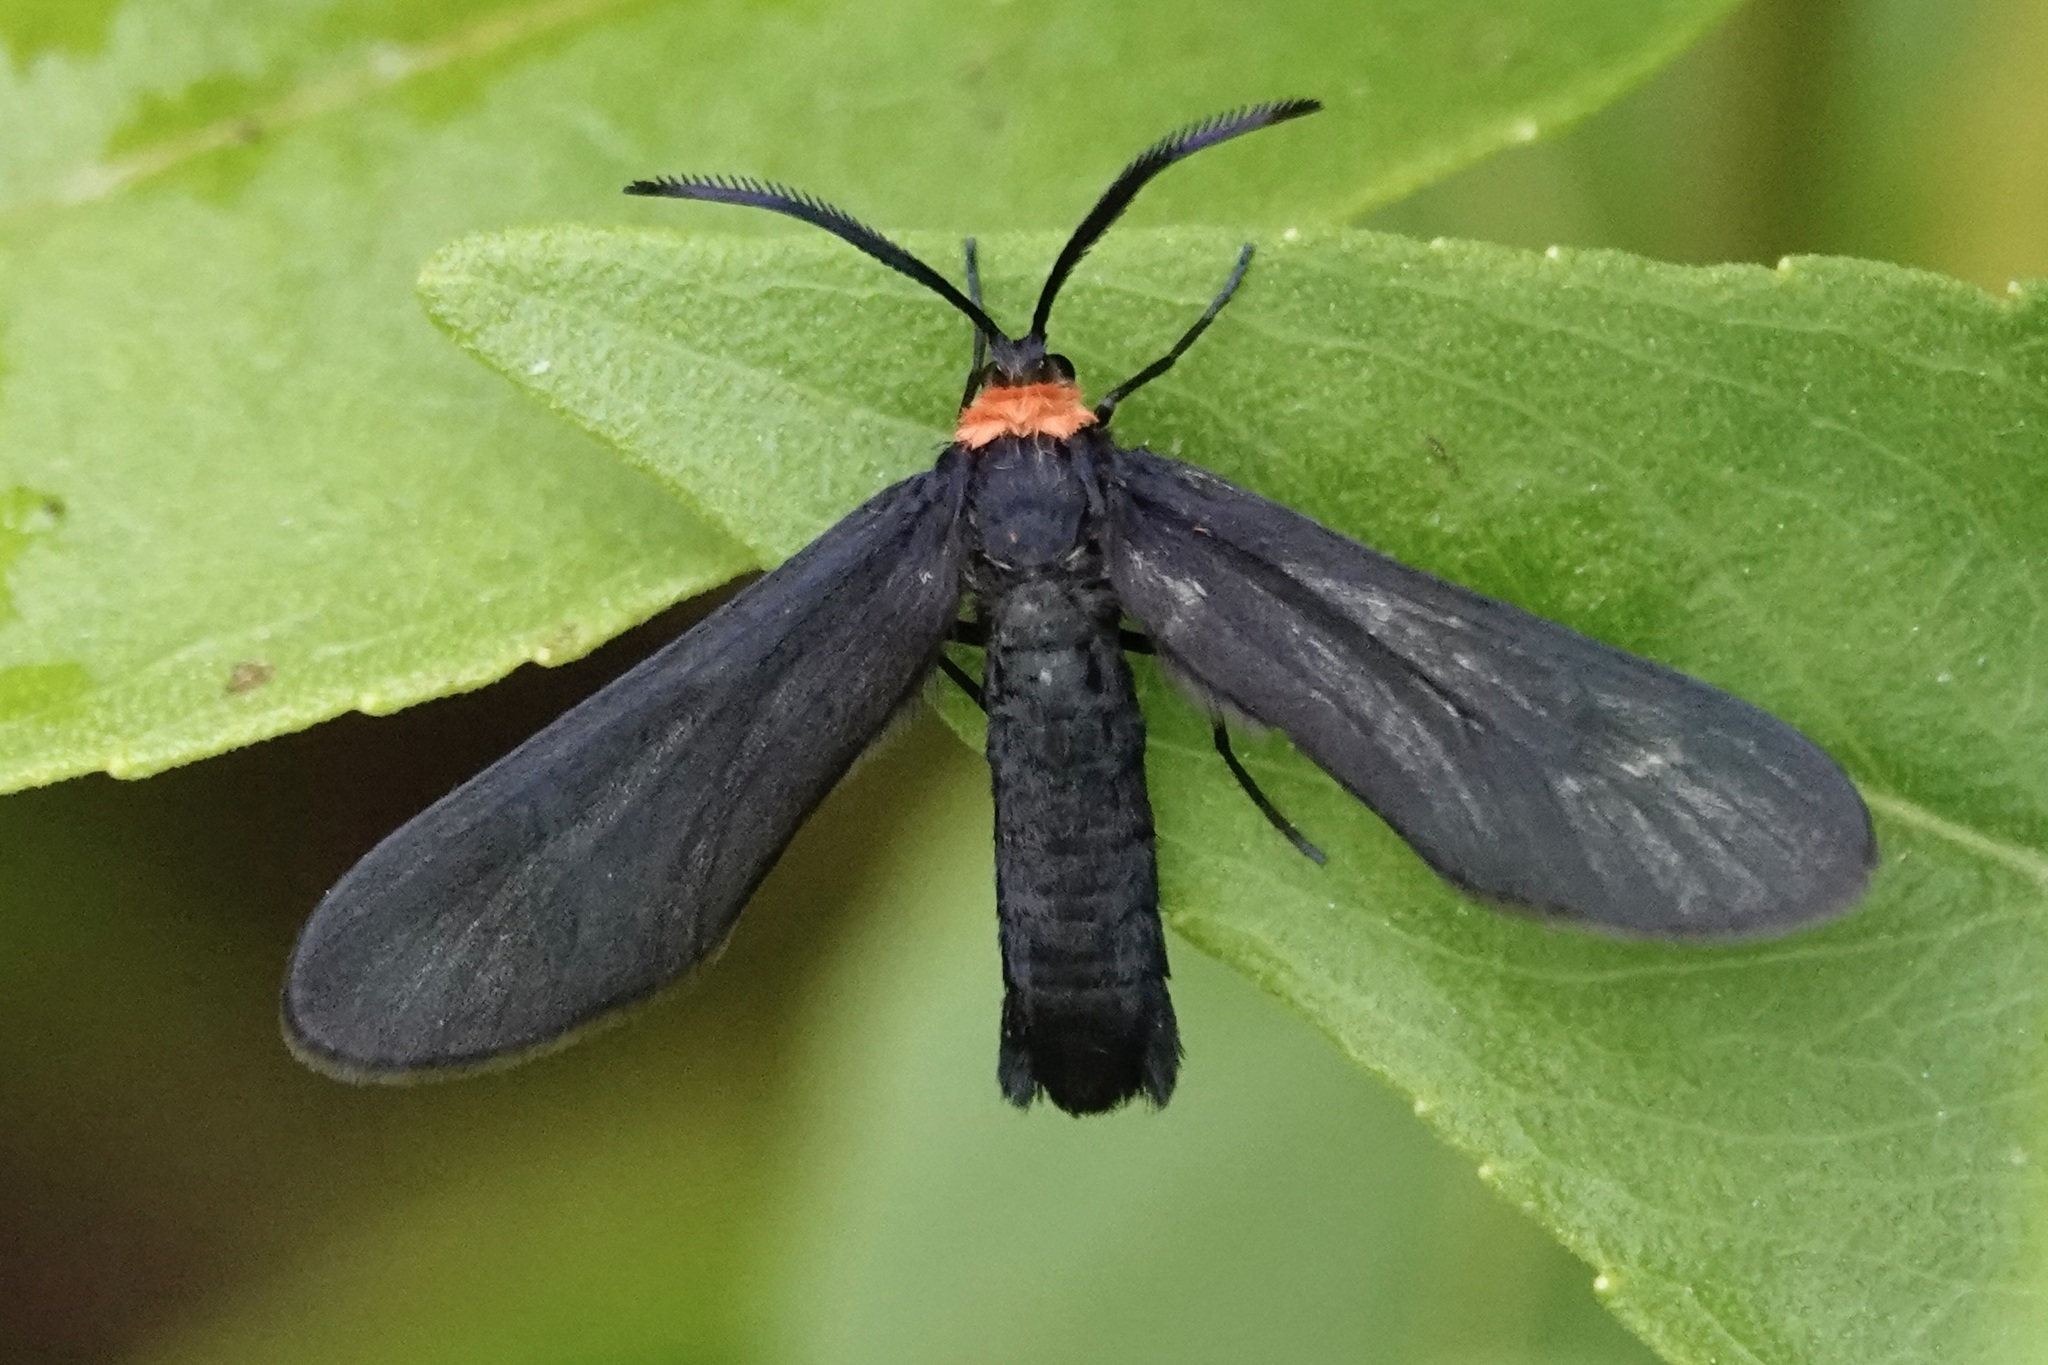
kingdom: Animalia
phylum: Arthropoda
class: Insecta
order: Lepidoptera
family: Zygaenidae
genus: Harrisina
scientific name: Harrisina americana
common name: Grapeleaf skeletonizer moth
